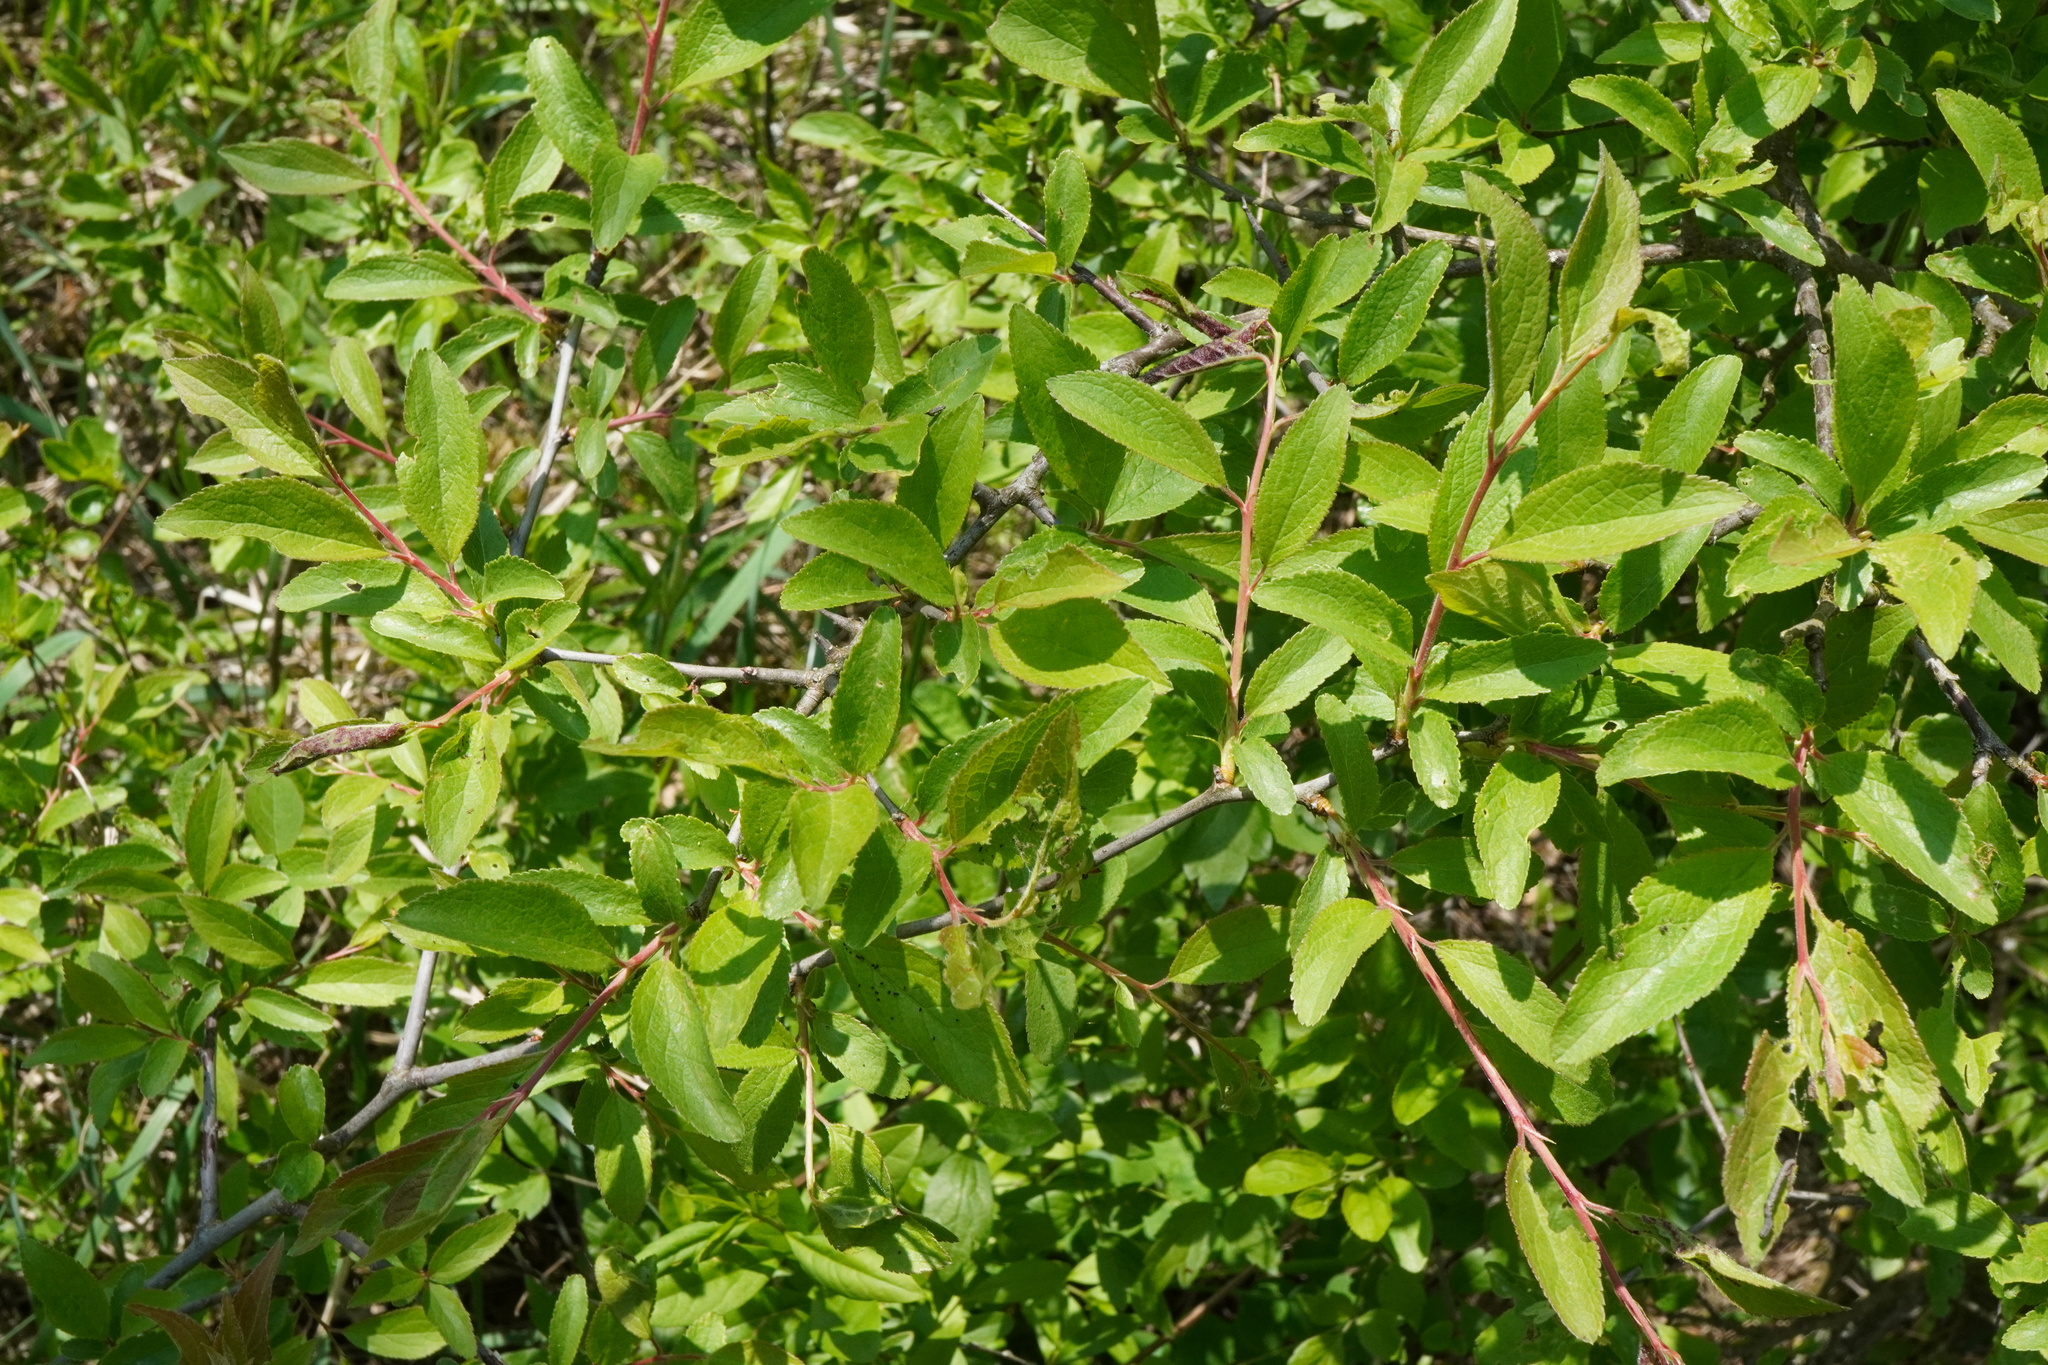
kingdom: Plantae
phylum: Tracheophyta
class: Magnoliopsida
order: Rosales
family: Rosaceae
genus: Prunus
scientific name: Prunus spinosa
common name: Blackthorn
